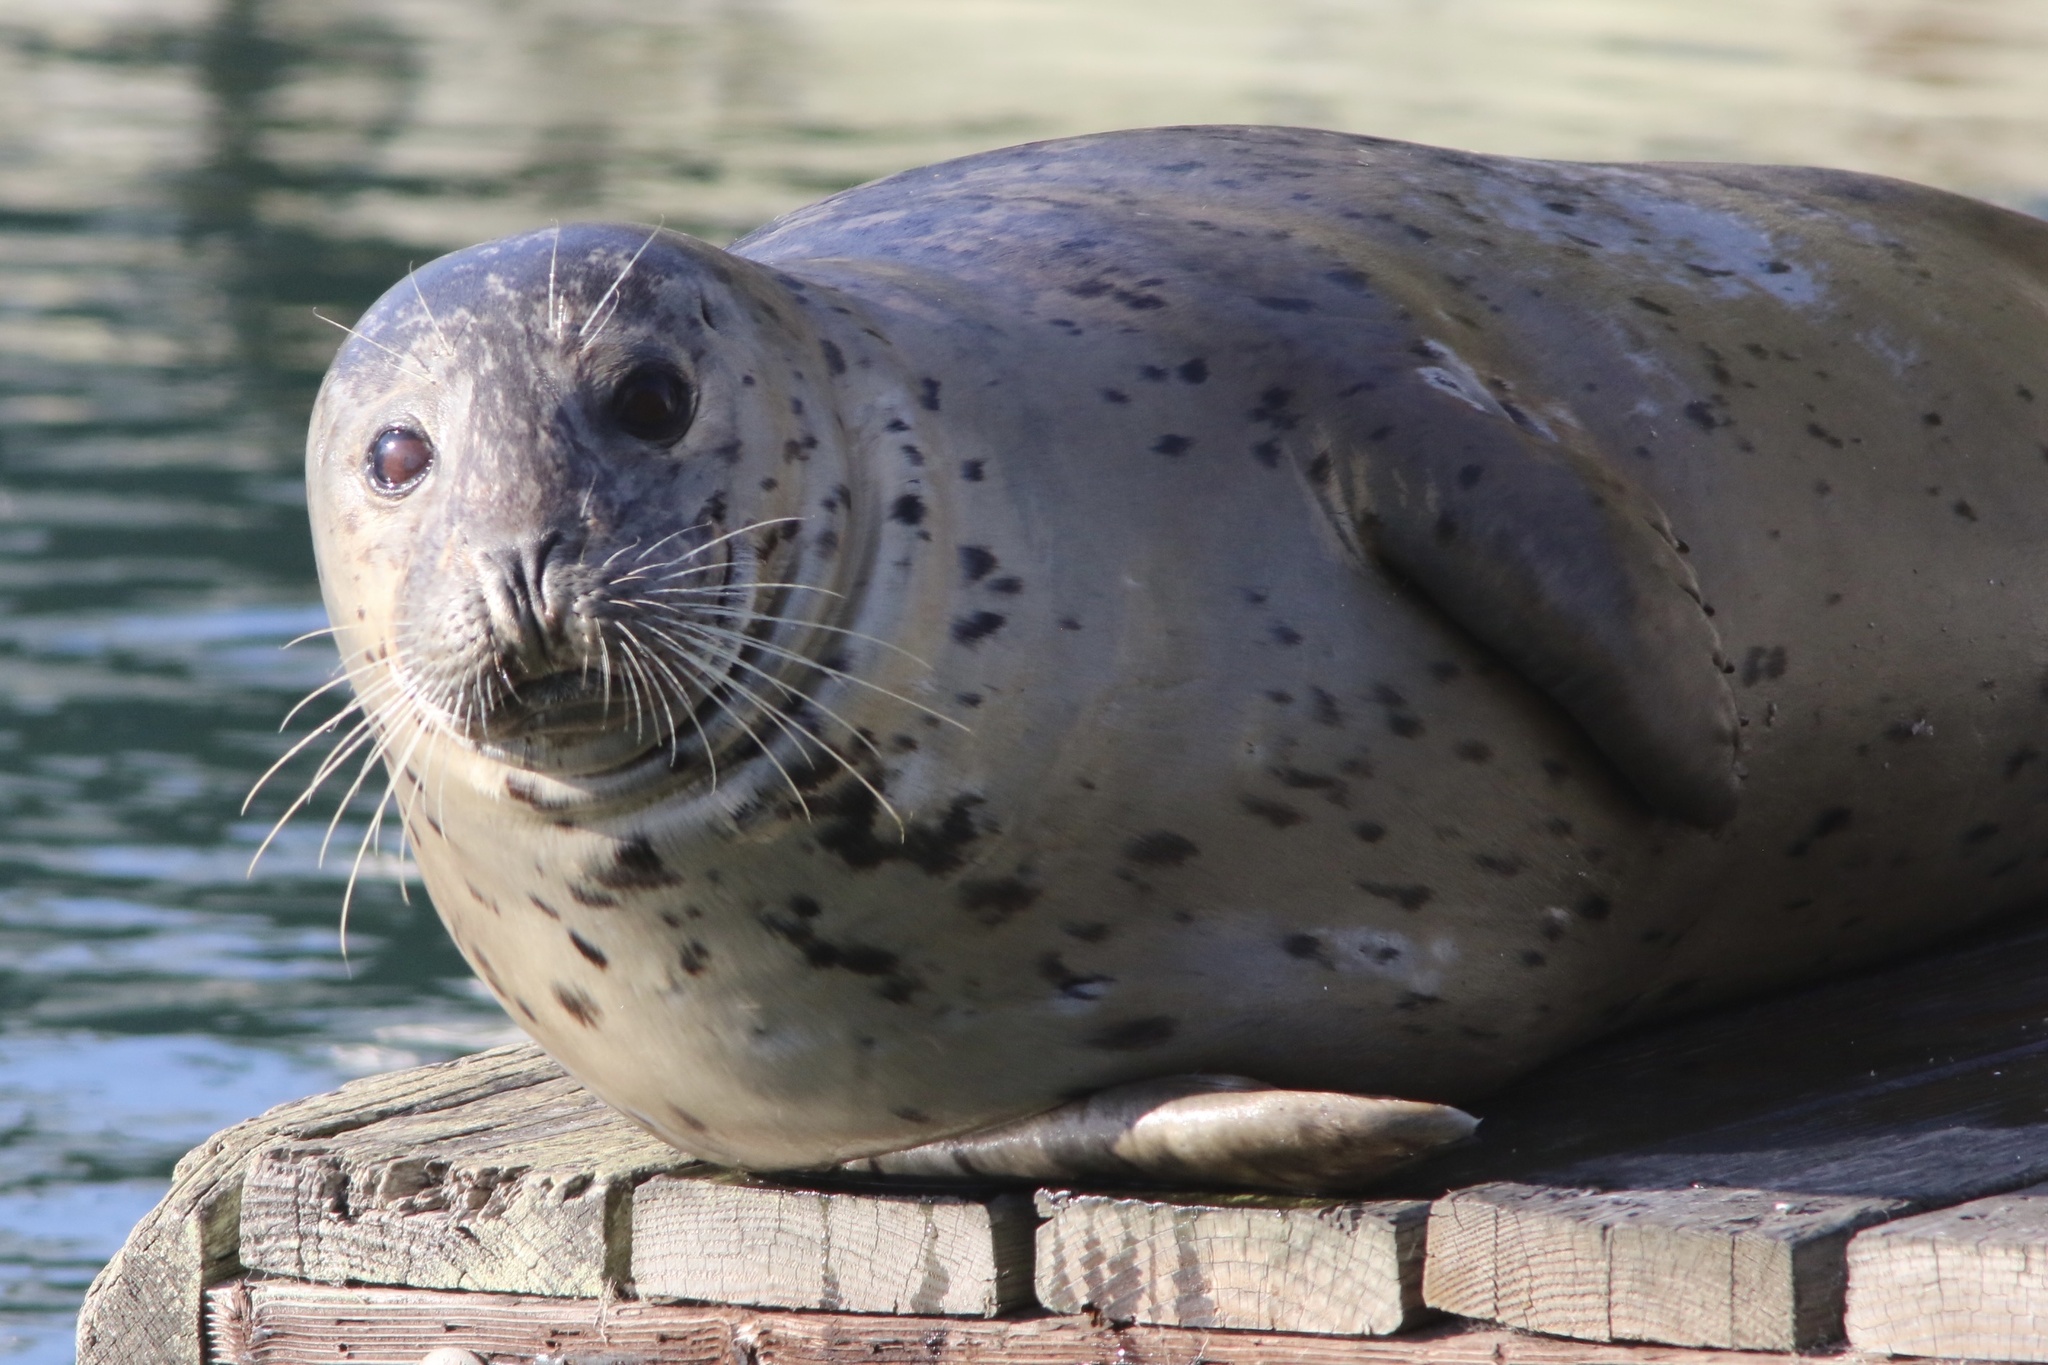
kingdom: Animalia
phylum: Chordata
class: Mammalia
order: Carnivora
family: Phocidae
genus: Phoca
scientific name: Phoca vitulina
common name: Harbor seal
